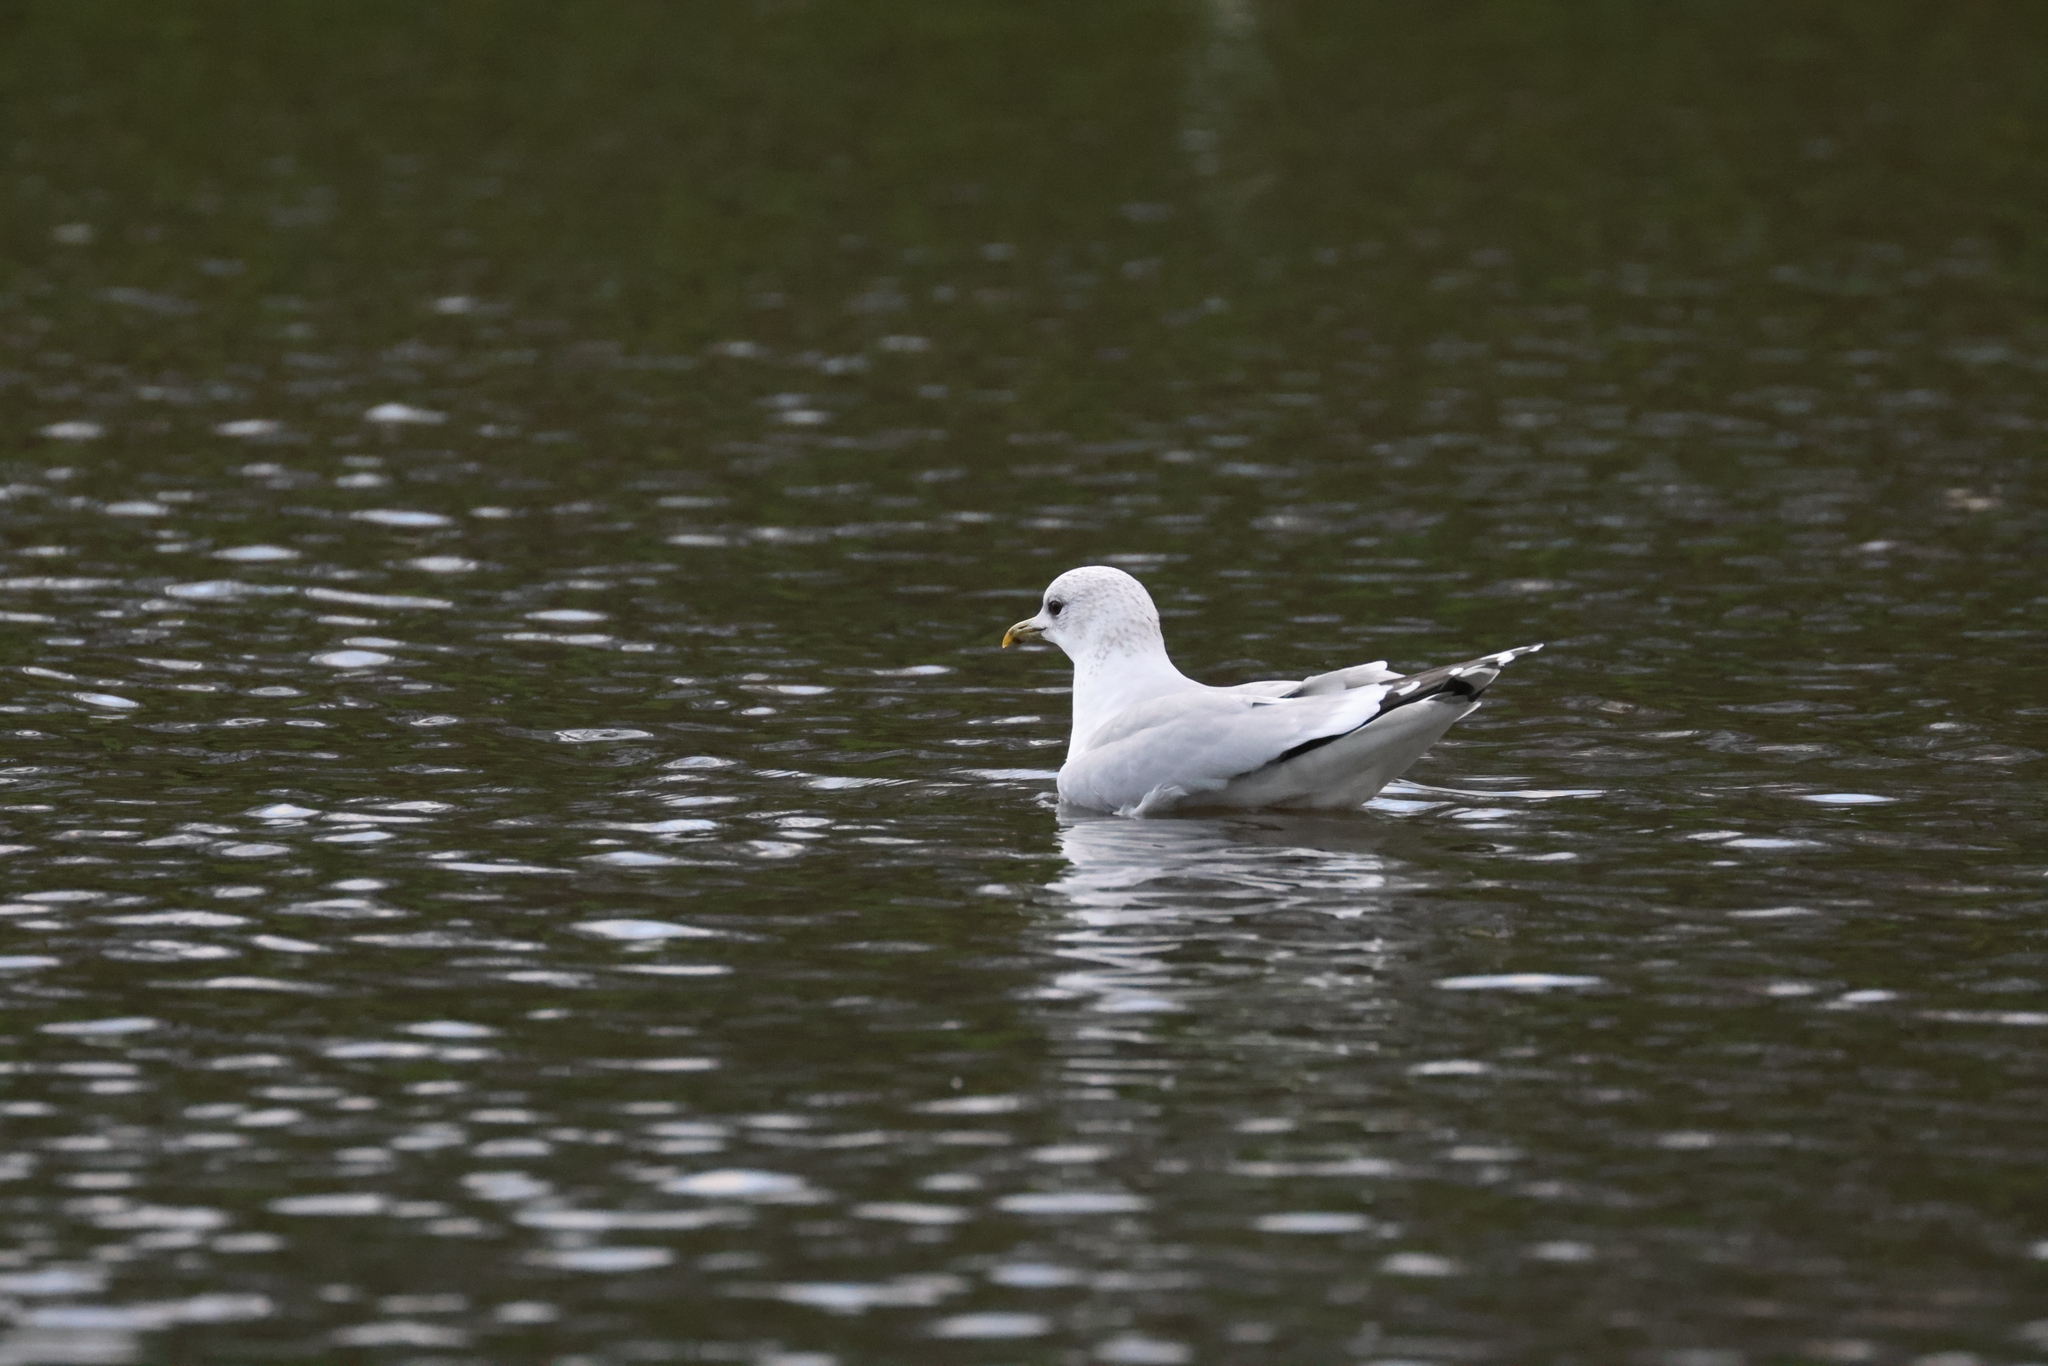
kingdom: Animalia
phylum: Chordata
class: Aves
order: Charadriiformes
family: Laridae
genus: Larus
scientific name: Larus canus
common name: Mew gull
